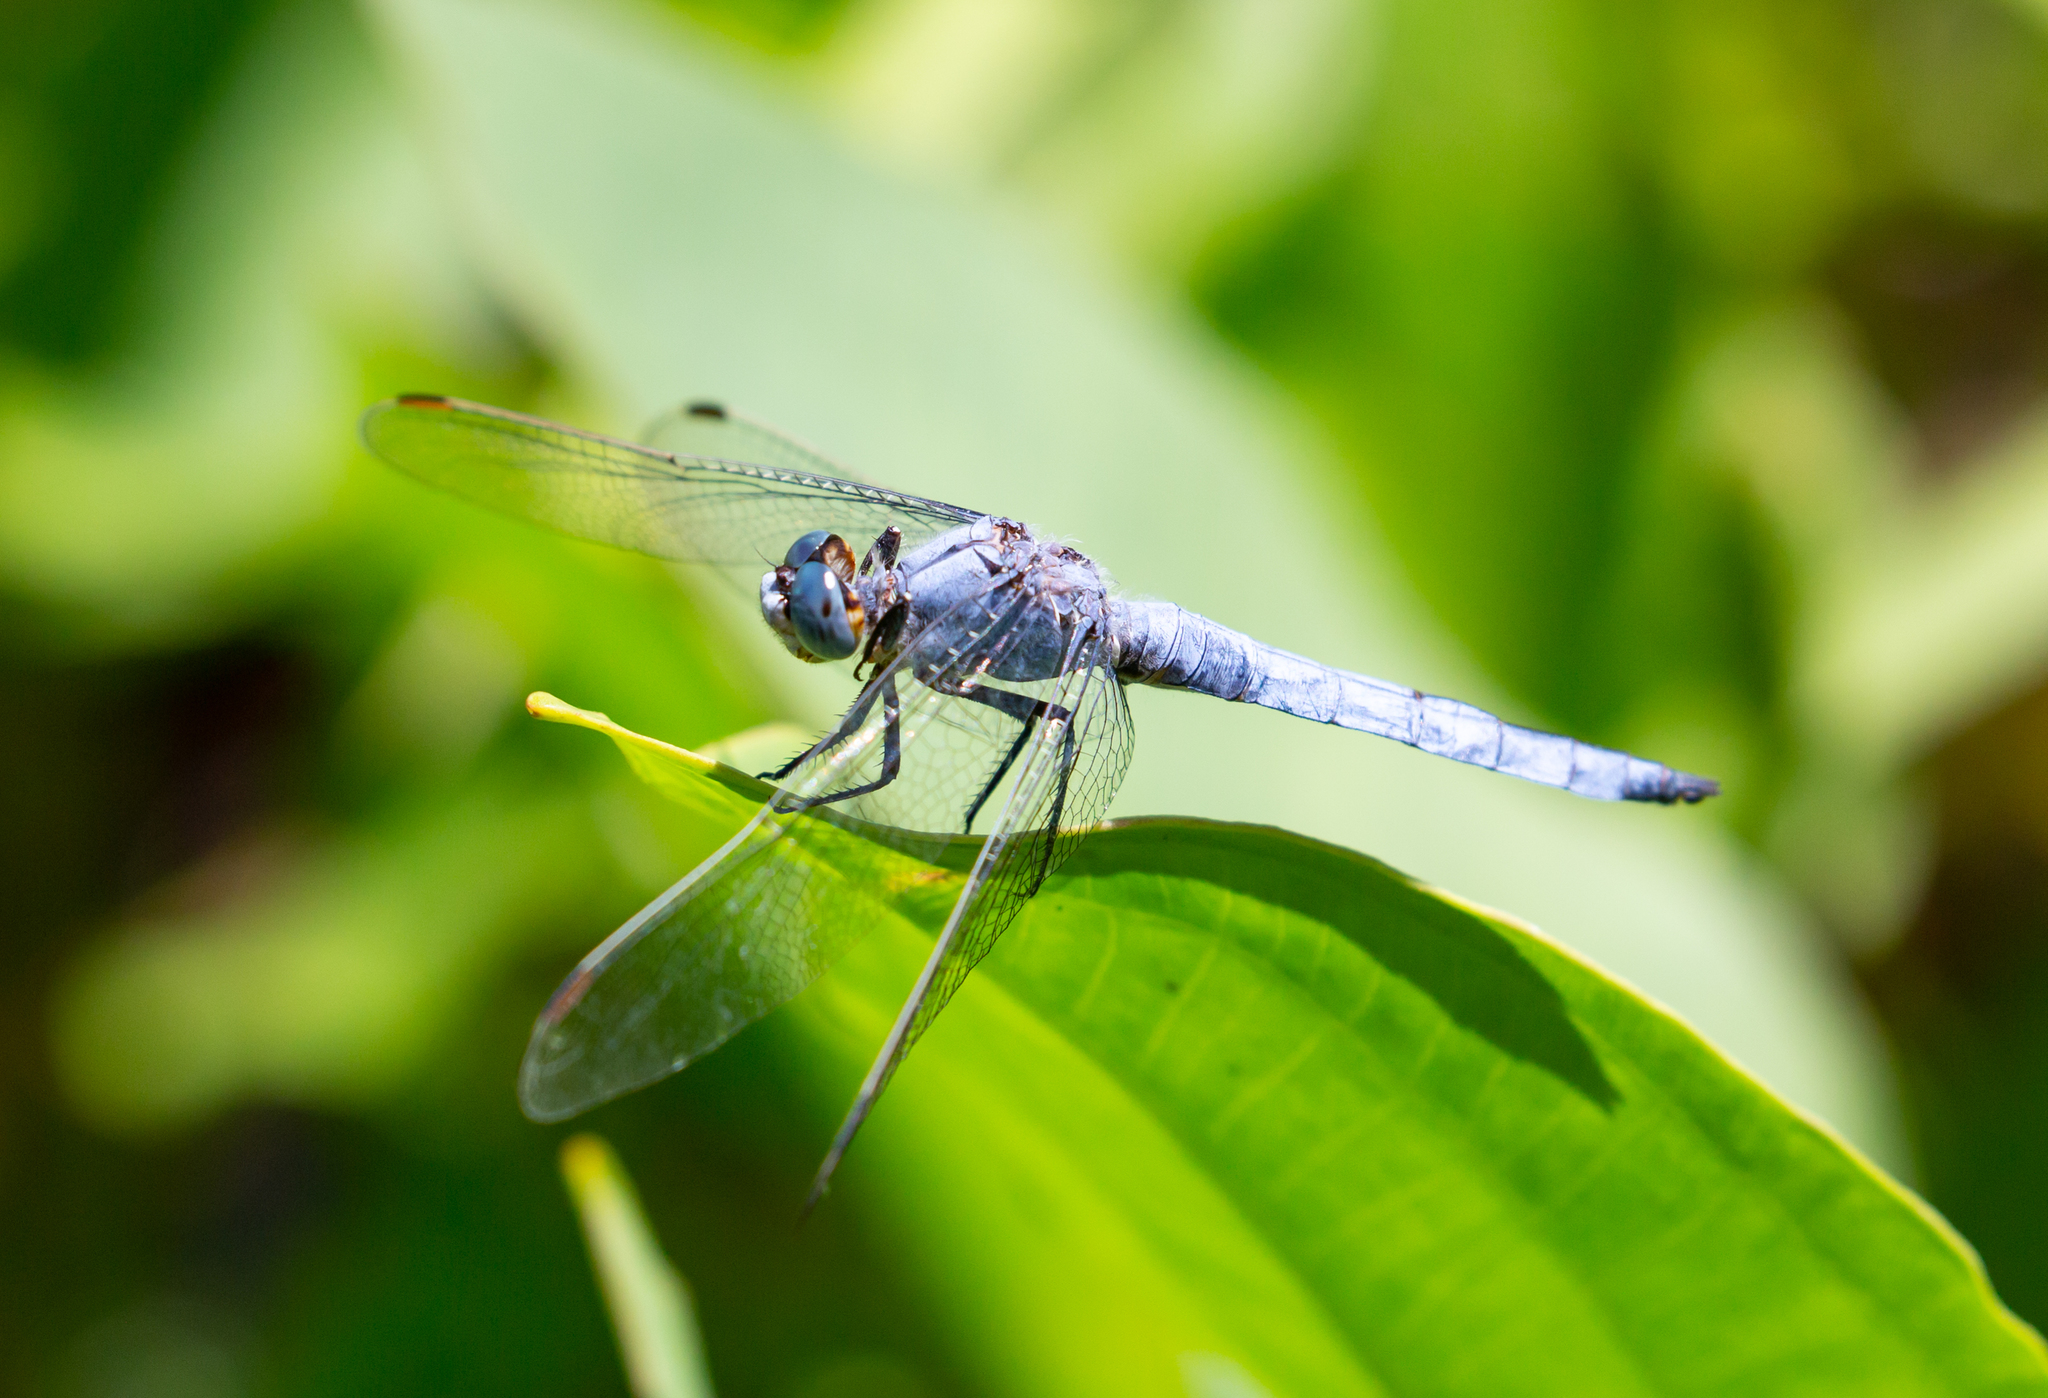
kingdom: Animalia
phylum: Arthropoda
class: Insecta
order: Odonata
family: Libellulidae
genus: Orthetrum
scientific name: Orthetrum brunneum
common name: Southern skimmer
